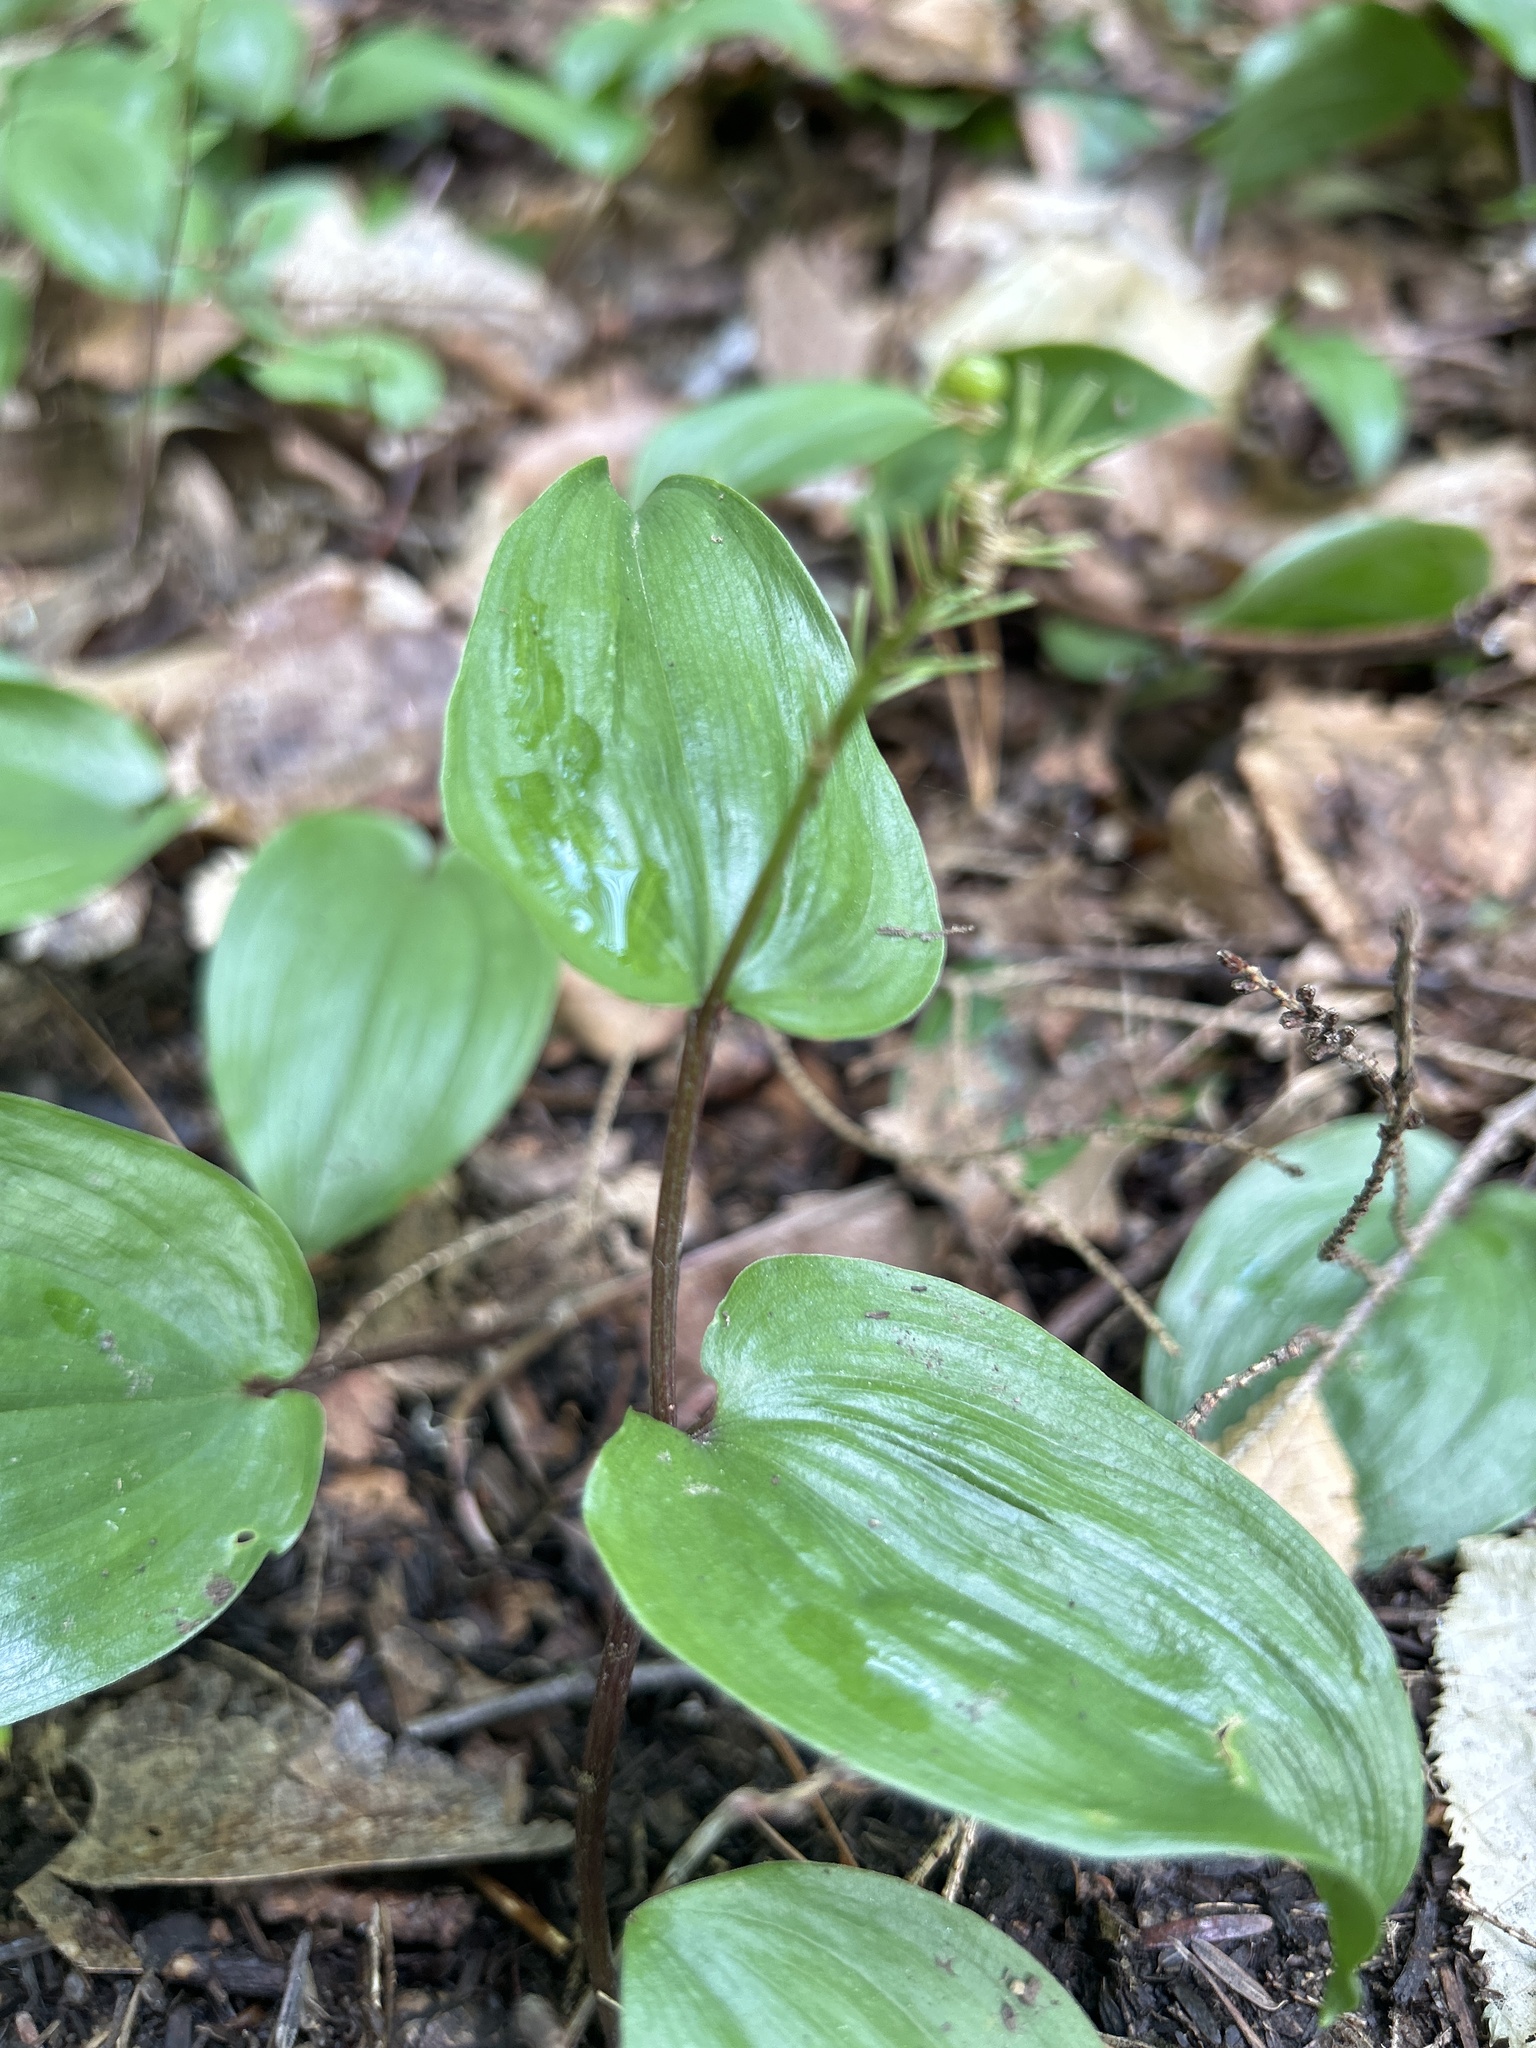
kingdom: Plantae
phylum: Tracheophyta
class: Liliopsida
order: Asparagales
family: Asparagaceae
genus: Maianthemum
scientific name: Maianthemum canadense
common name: False lily-of-the-valley
